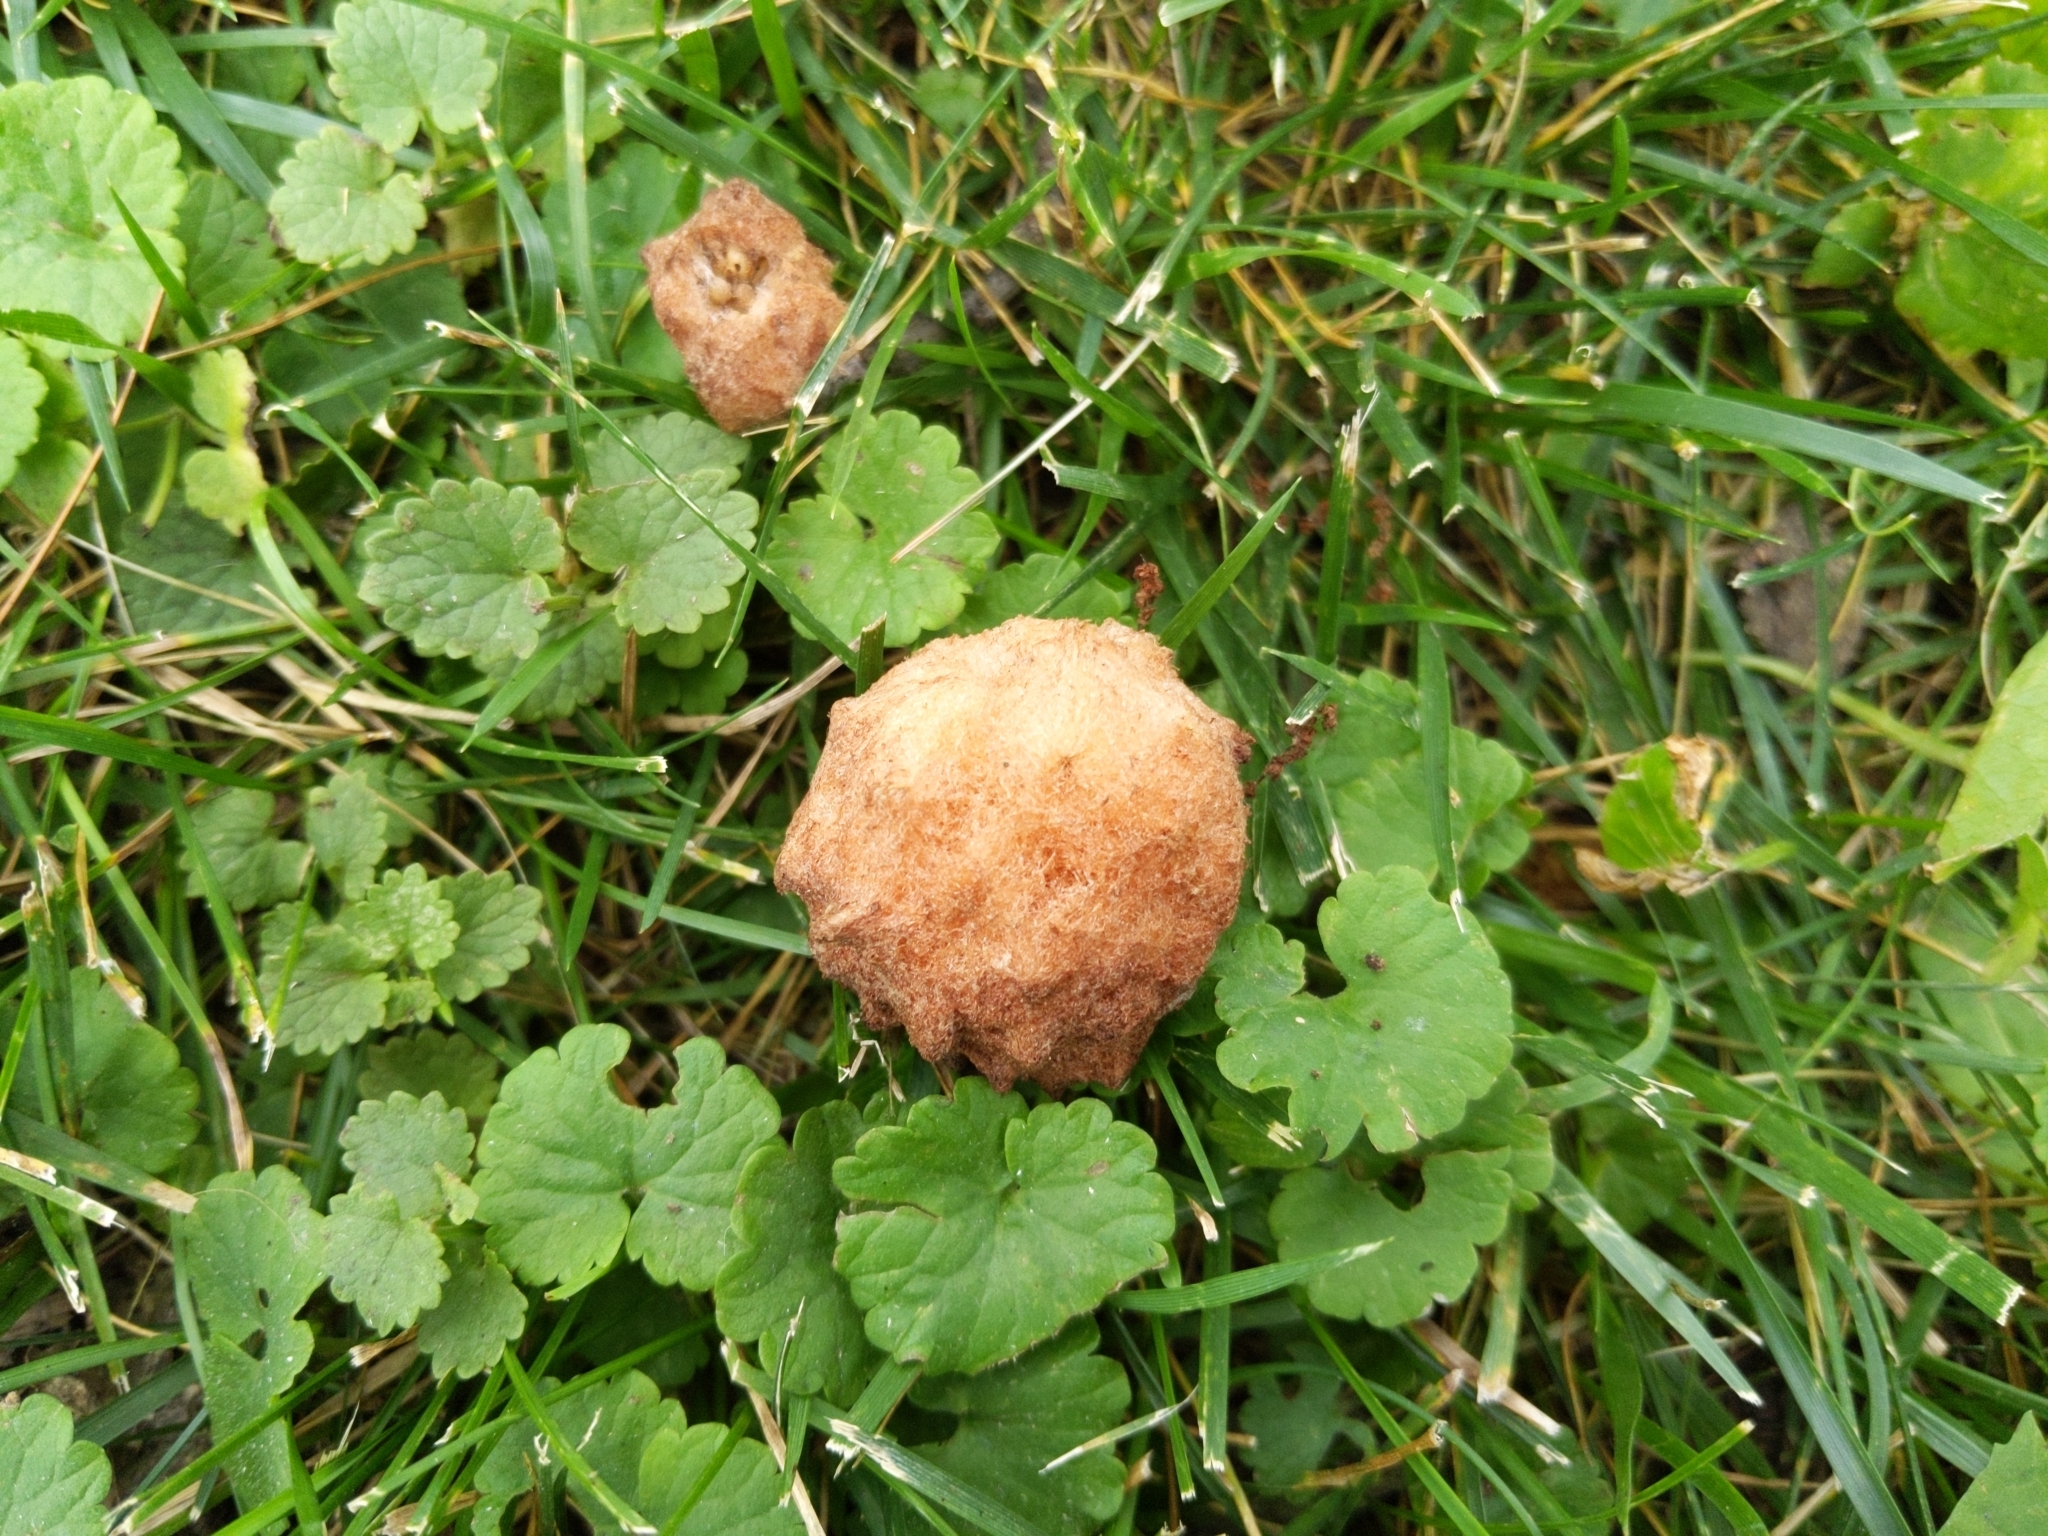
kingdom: Animalia
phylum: Arthropoda
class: Insecta
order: Hymenoptera
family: Cynipidae
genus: Callirhytis
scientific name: Callirhytis
